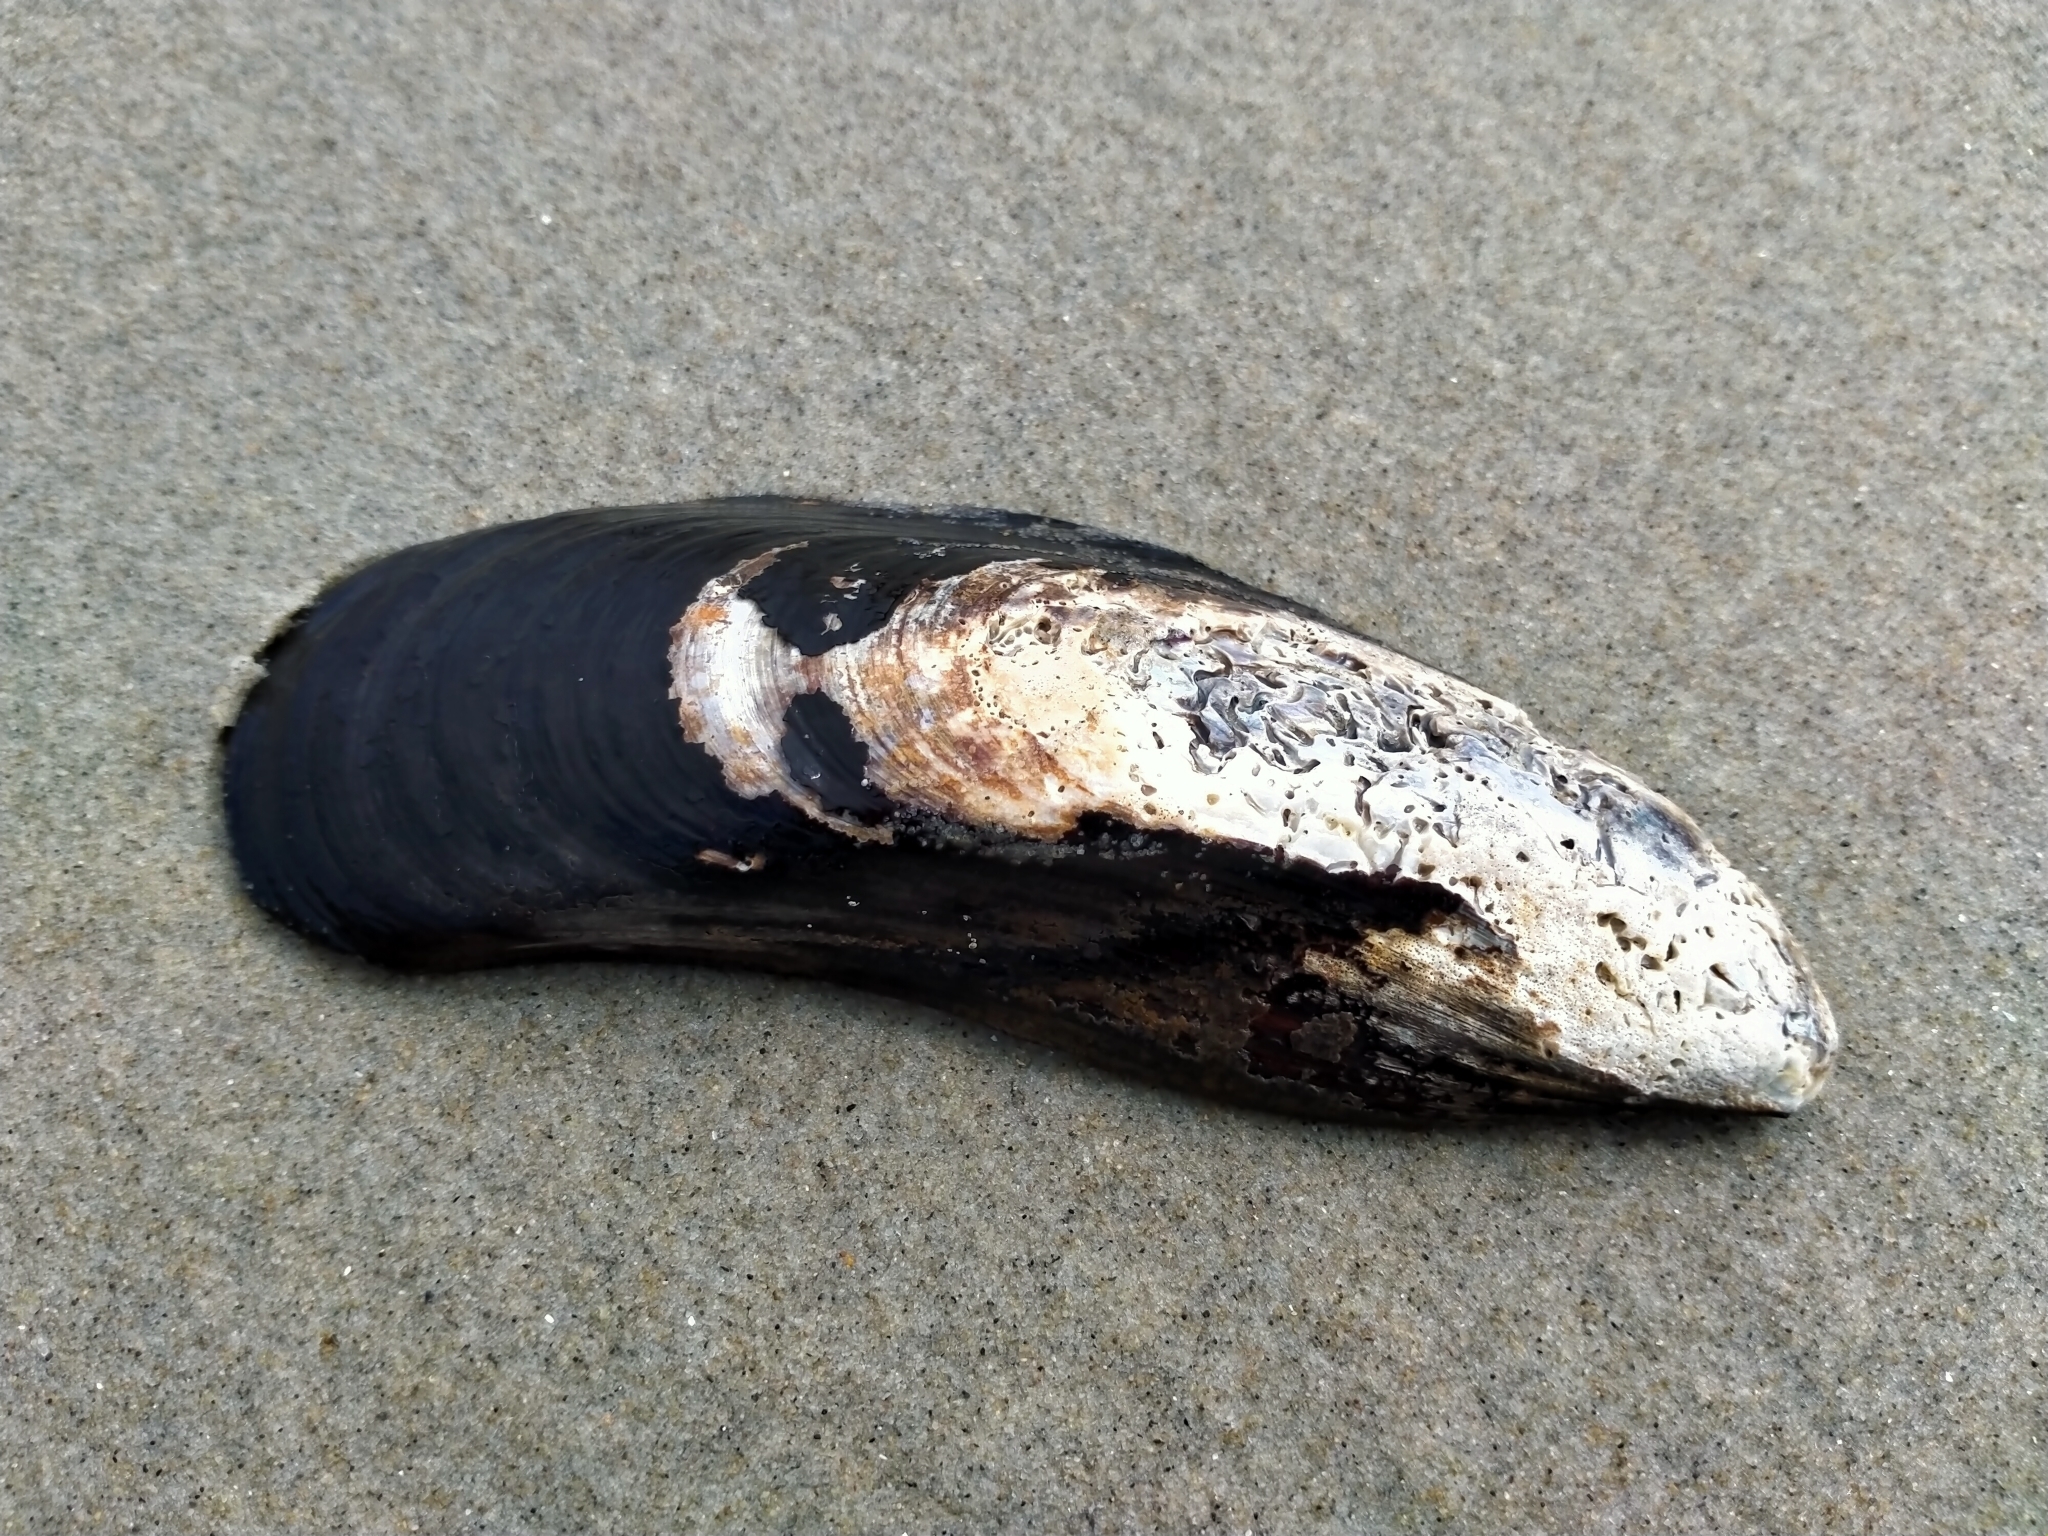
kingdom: Animalia
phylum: Mollusca
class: Bivalvia
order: Mytilida
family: Mytilidae
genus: Perna
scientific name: Perna canaliculus
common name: New zealand greenshelltm
